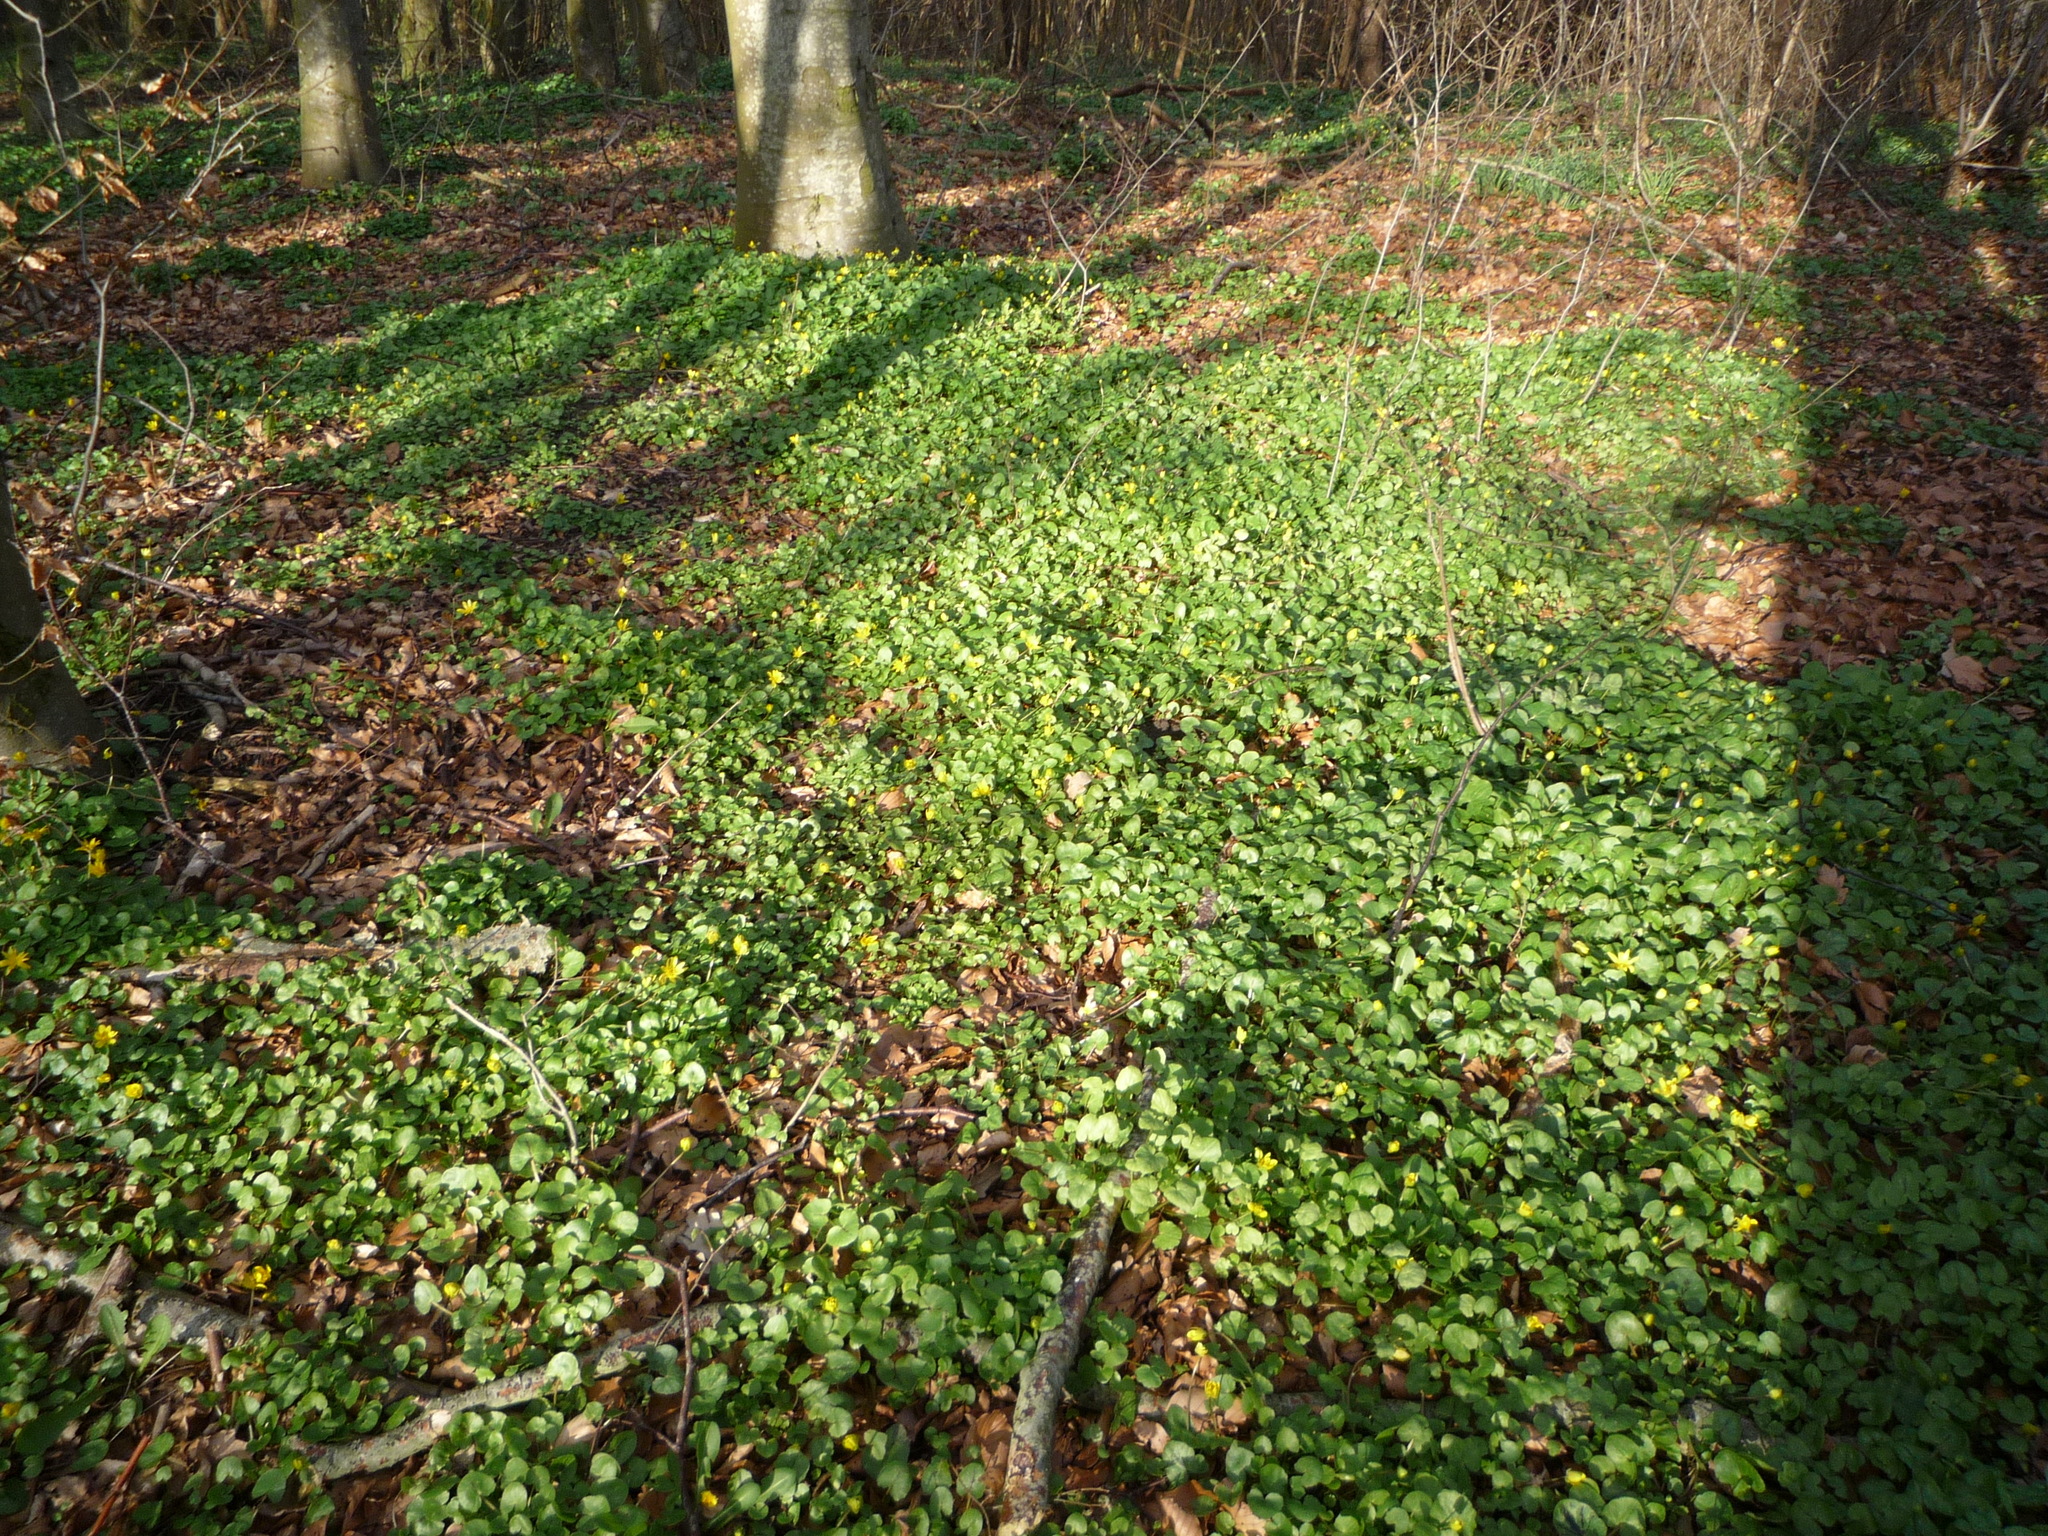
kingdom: Plantae
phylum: Tracheophyta
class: Magnoliopsida
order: Ranunculales
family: Ranunculaceae
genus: Ficaria
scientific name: Ficaria verna
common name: Lesser celandine
